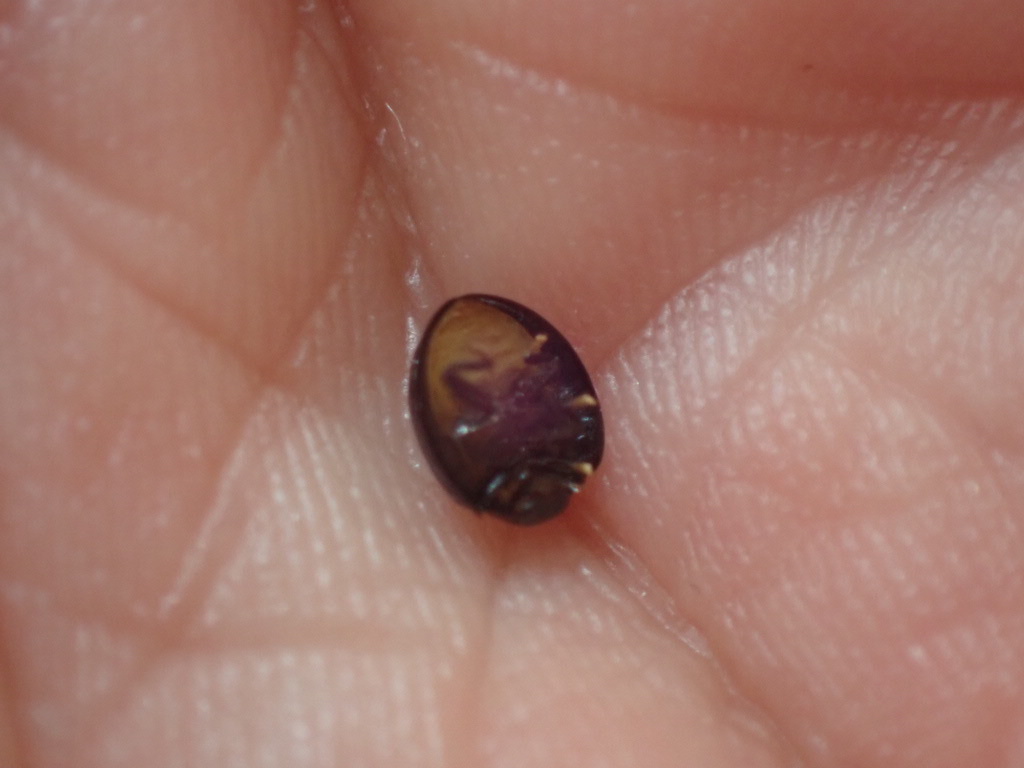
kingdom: Animalia
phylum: Arthropoda
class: Insecta
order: Coleoptera
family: Coccinellidae
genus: Halmus
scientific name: Halmus chalybeus
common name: Steel blue ladybird beetle
